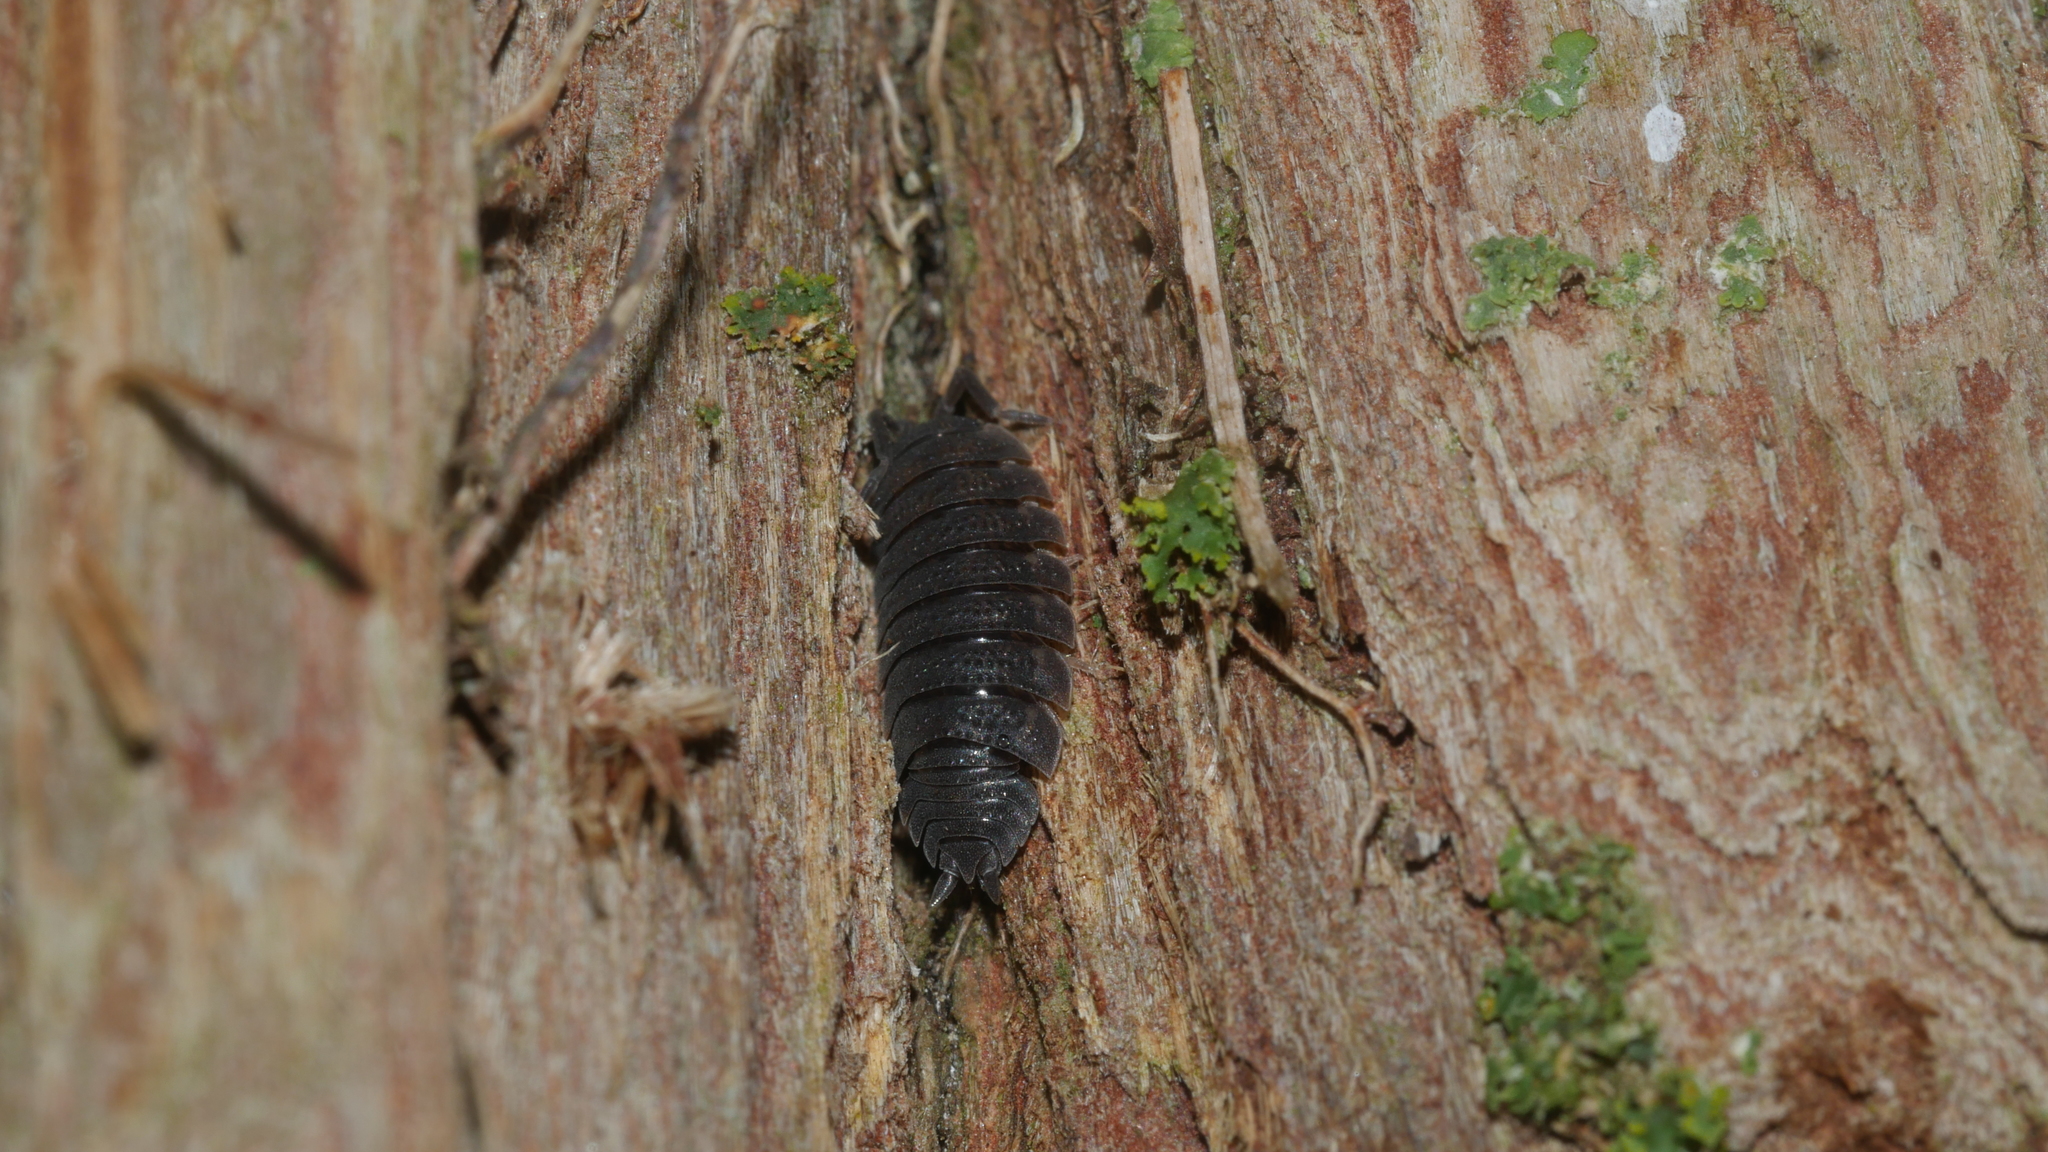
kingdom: Animalia
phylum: Arthropoda
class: Malacostraca
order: Isopoda
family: Porcellionidae
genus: Porcellio
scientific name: Porcellio scaber
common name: Common rough woodlouse
